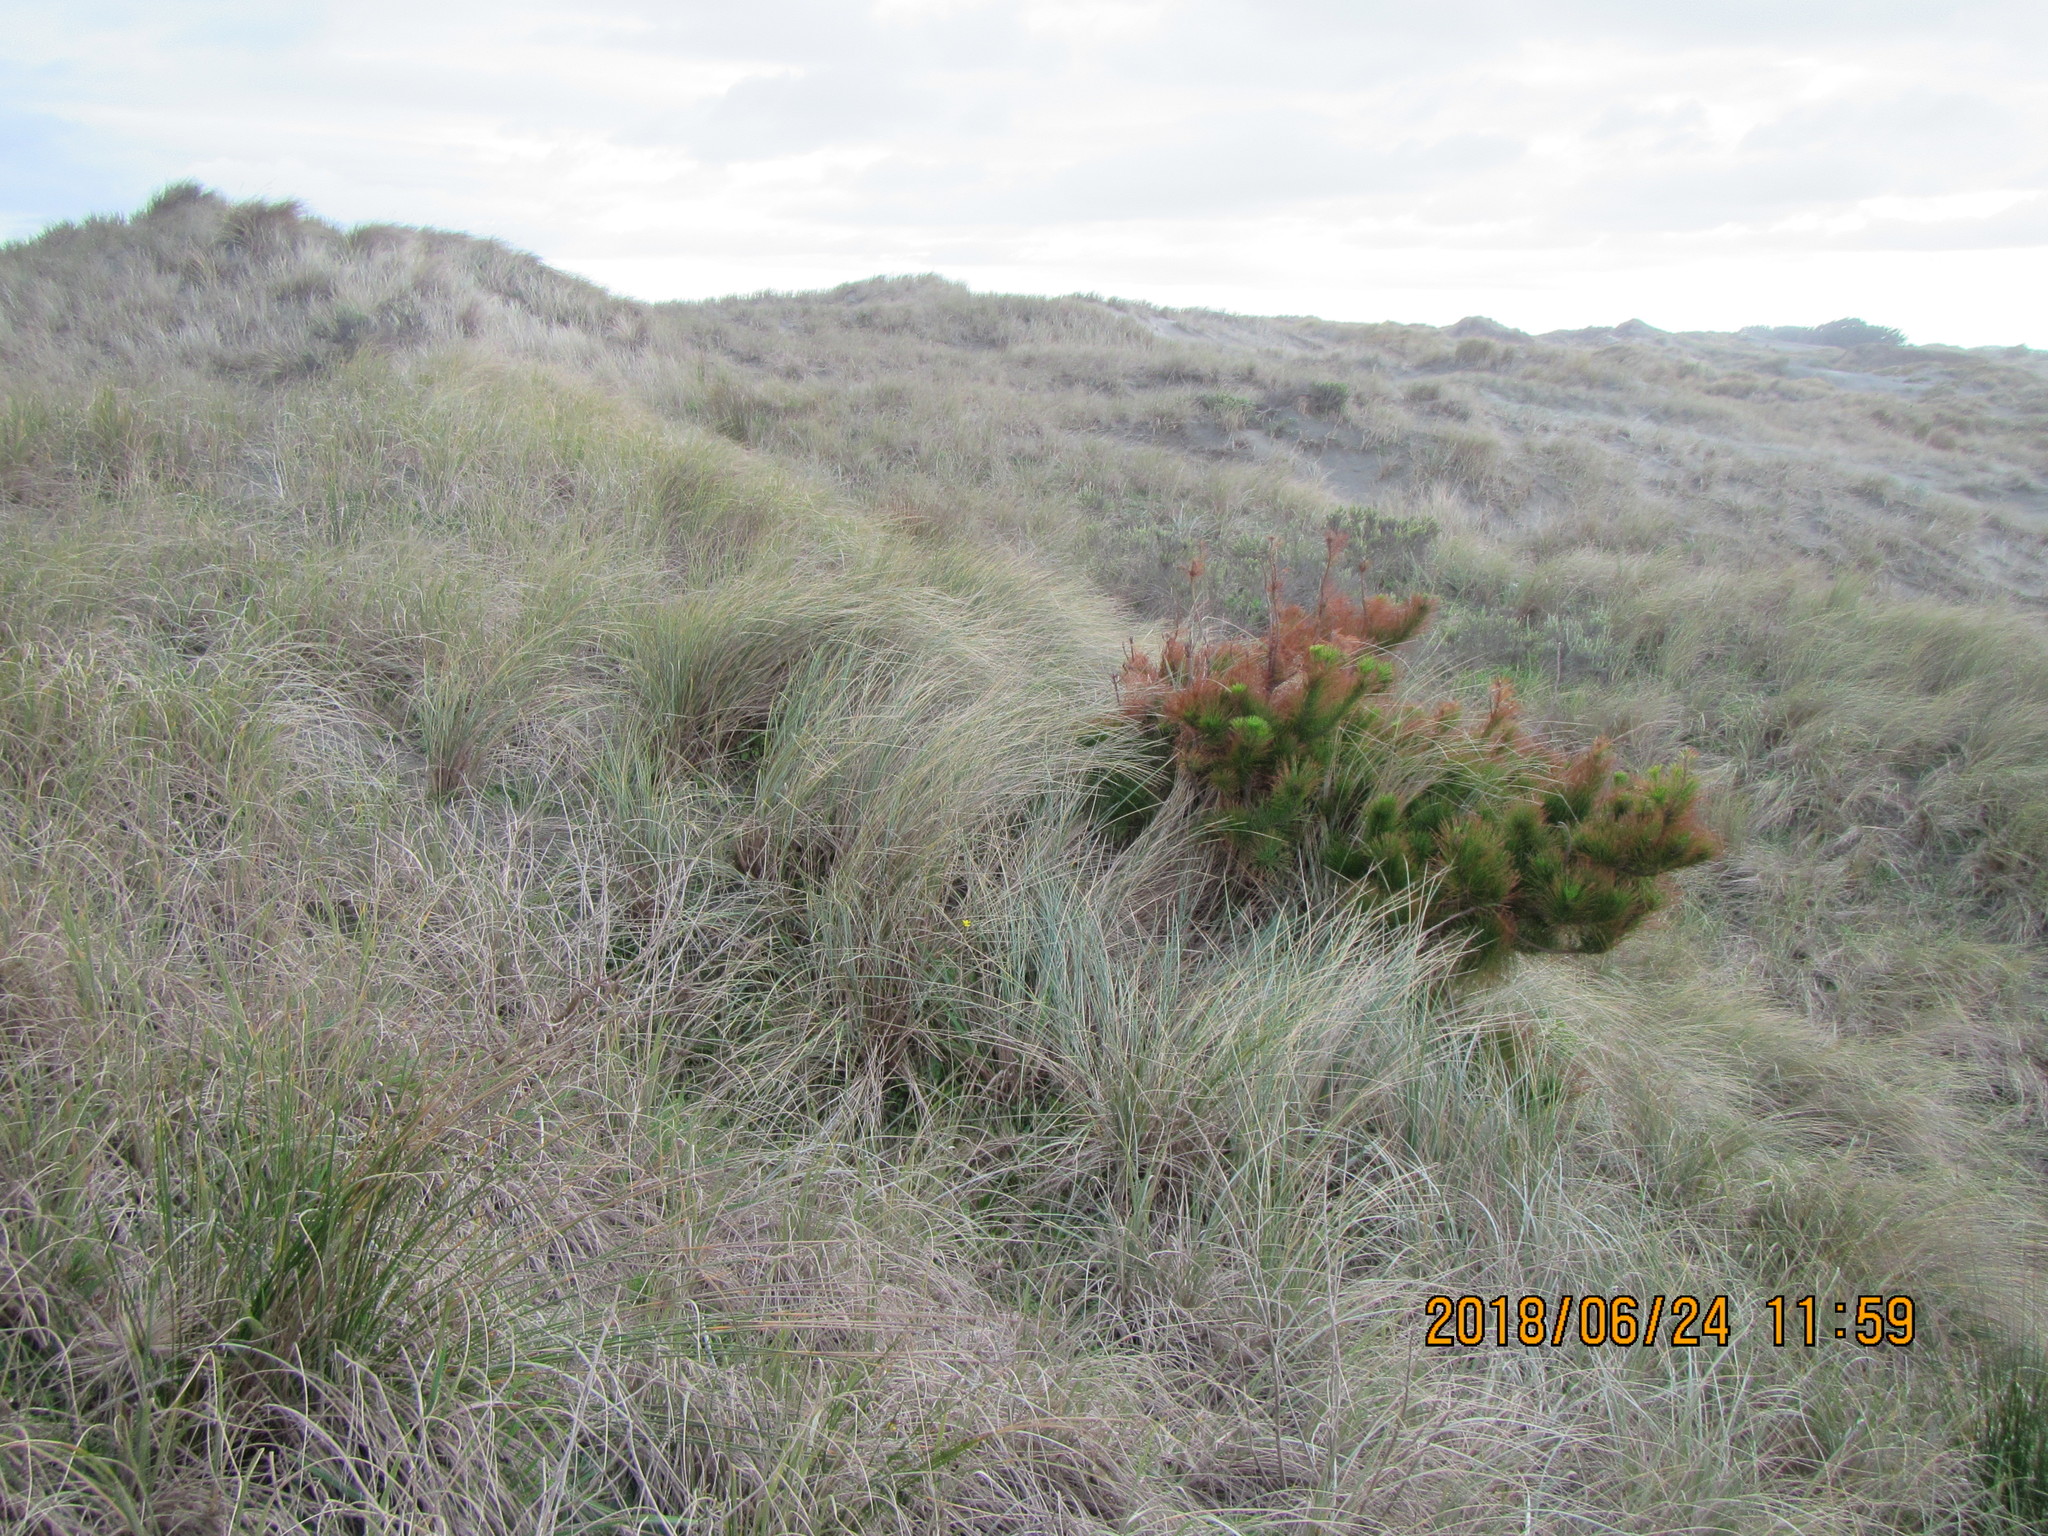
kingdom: Plantae
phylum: Tracheophyta
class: Pinopsida
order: Pinales
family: Pinaceae
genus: Pinus
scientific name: Pinus radiata
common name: Monterey pine
